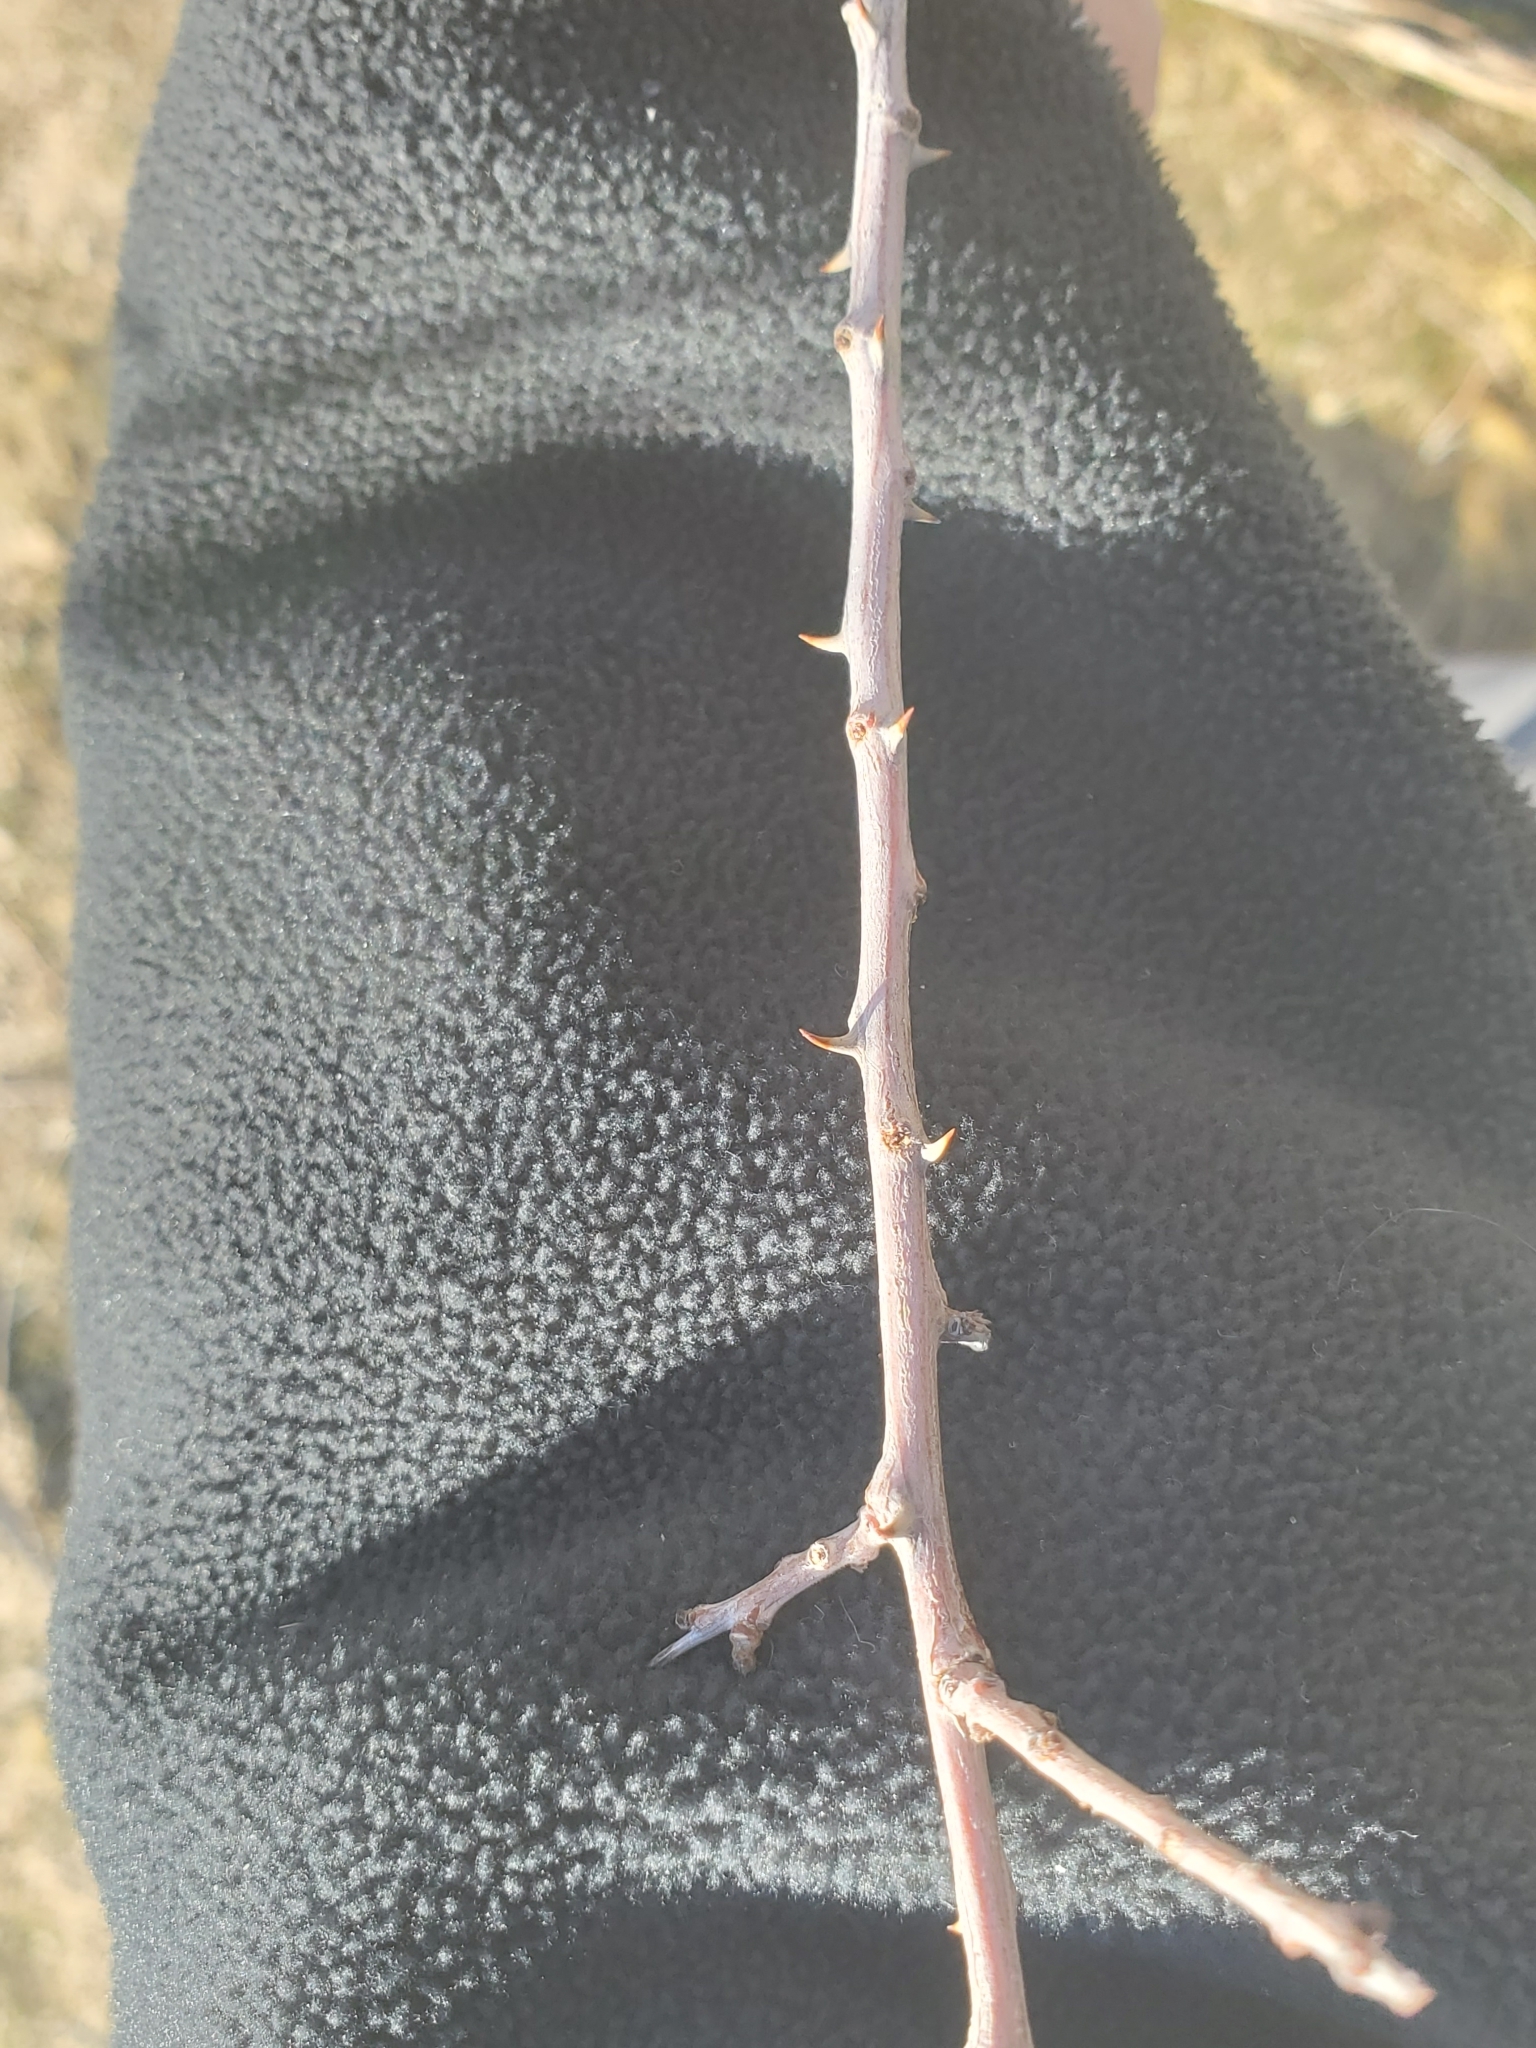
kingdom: Plantae
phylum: Tracheophyta
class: Magnoliopsida
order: Fabales
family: Fabaceae
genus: Senegalia
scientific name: Senegalia greggii
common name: Texas-mimosa
